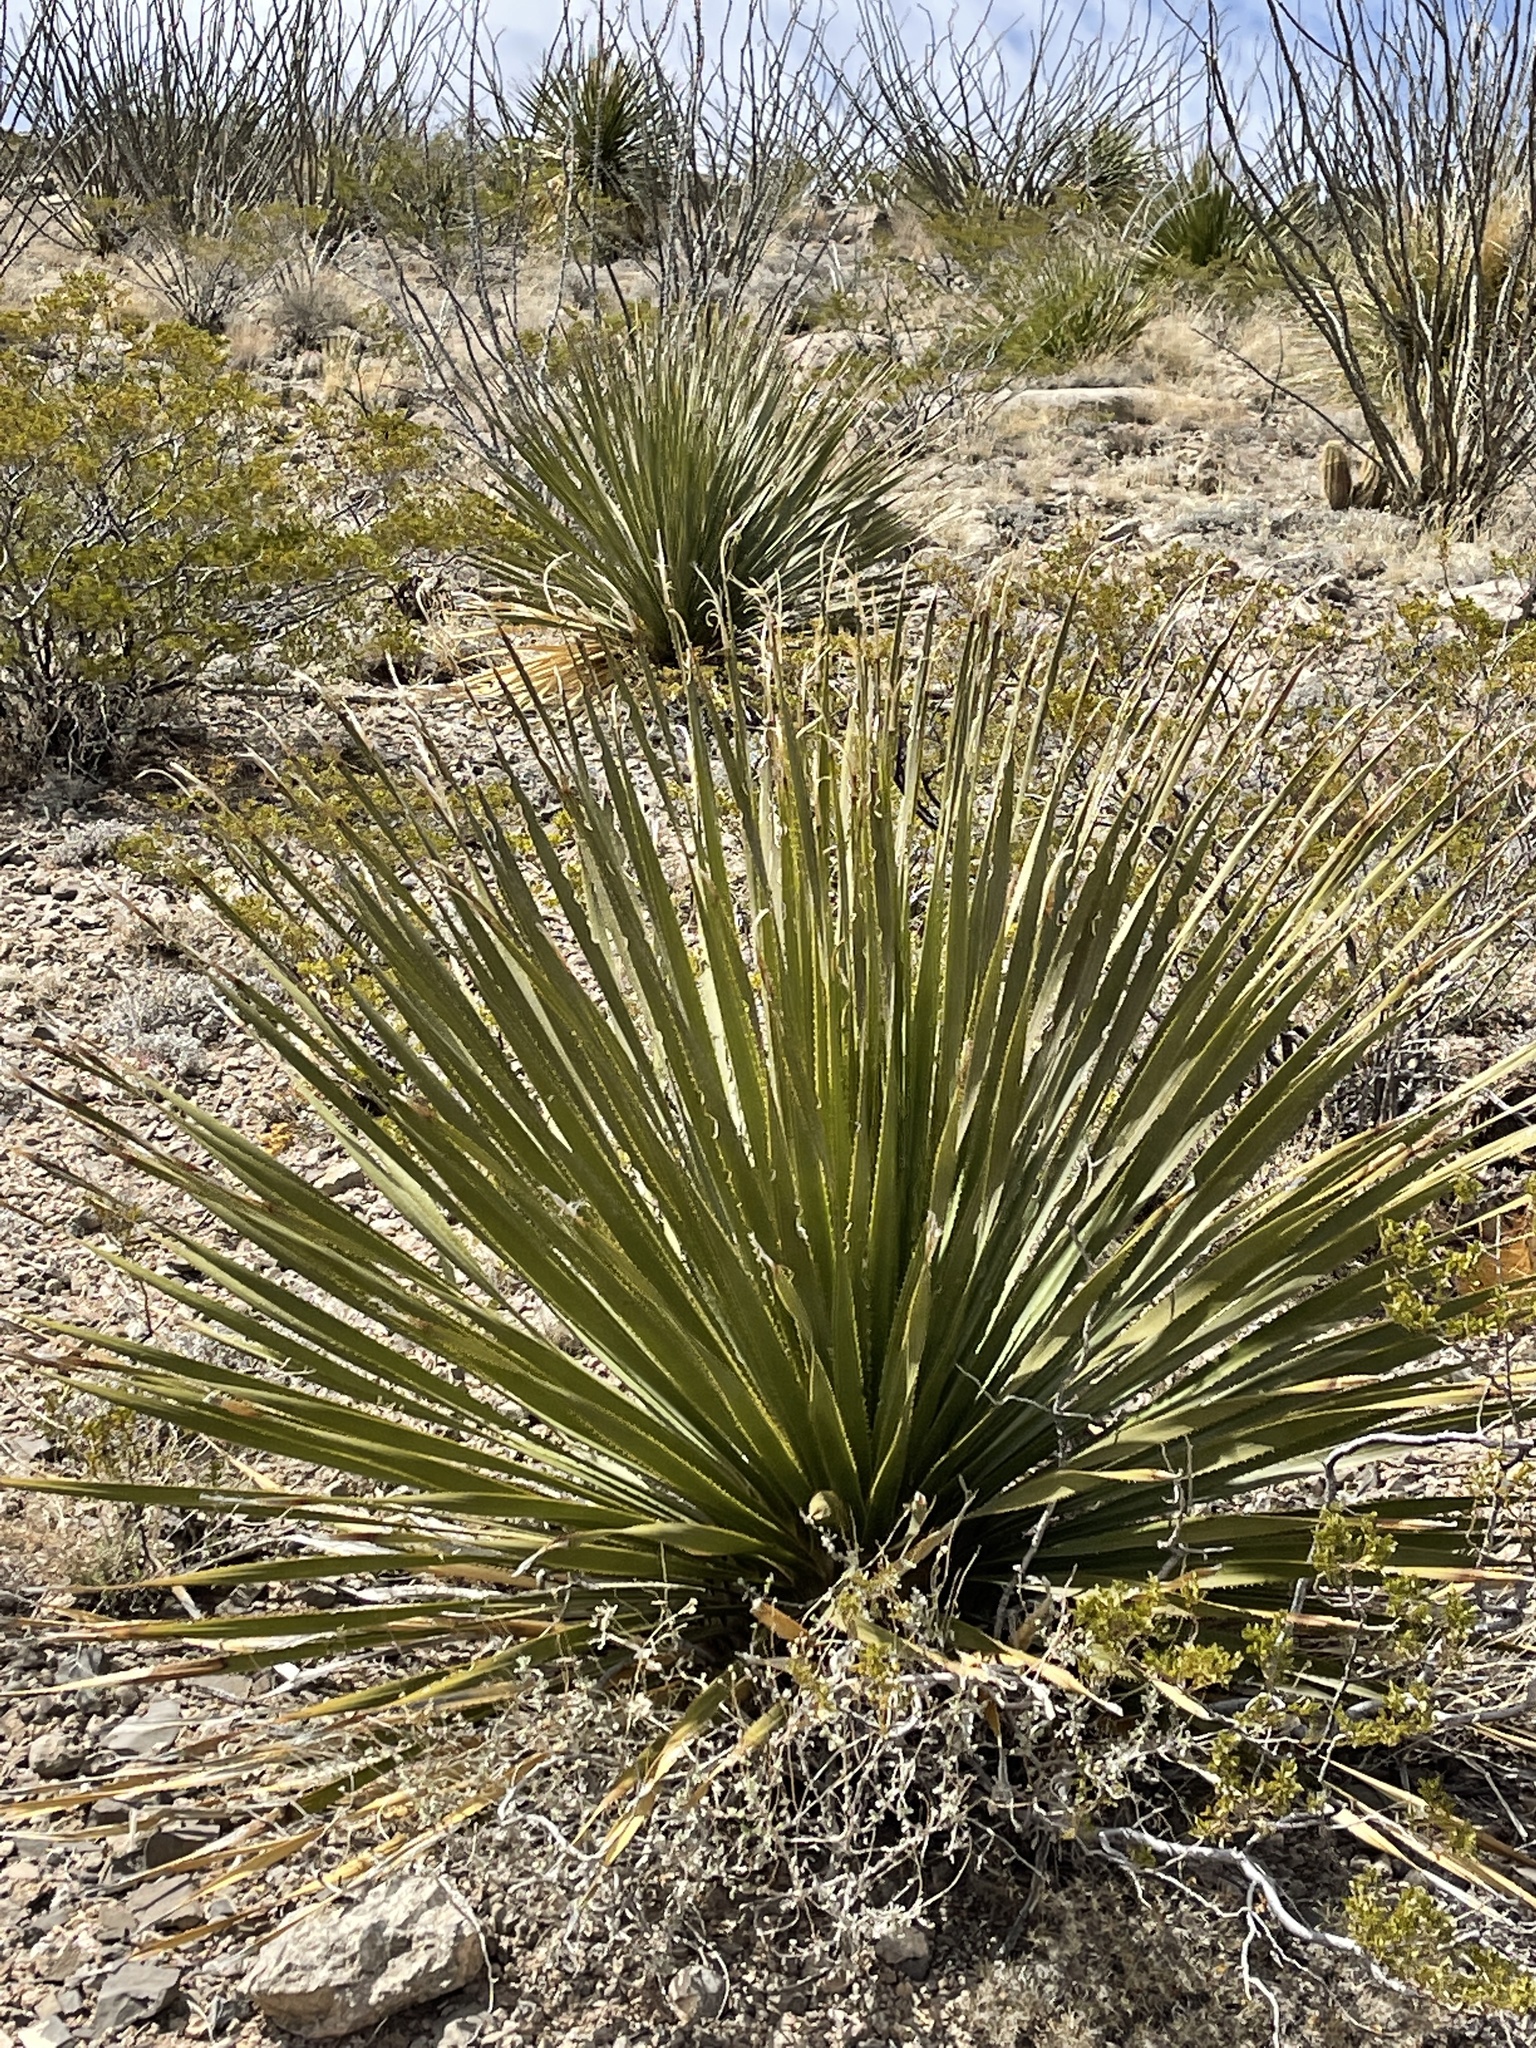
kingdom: Plantae
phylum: Tracheophyta
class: Liliopsida
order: Asparagales
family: Asparagaceae
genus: Dasylirion
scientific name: Dasylirion wheeleri
